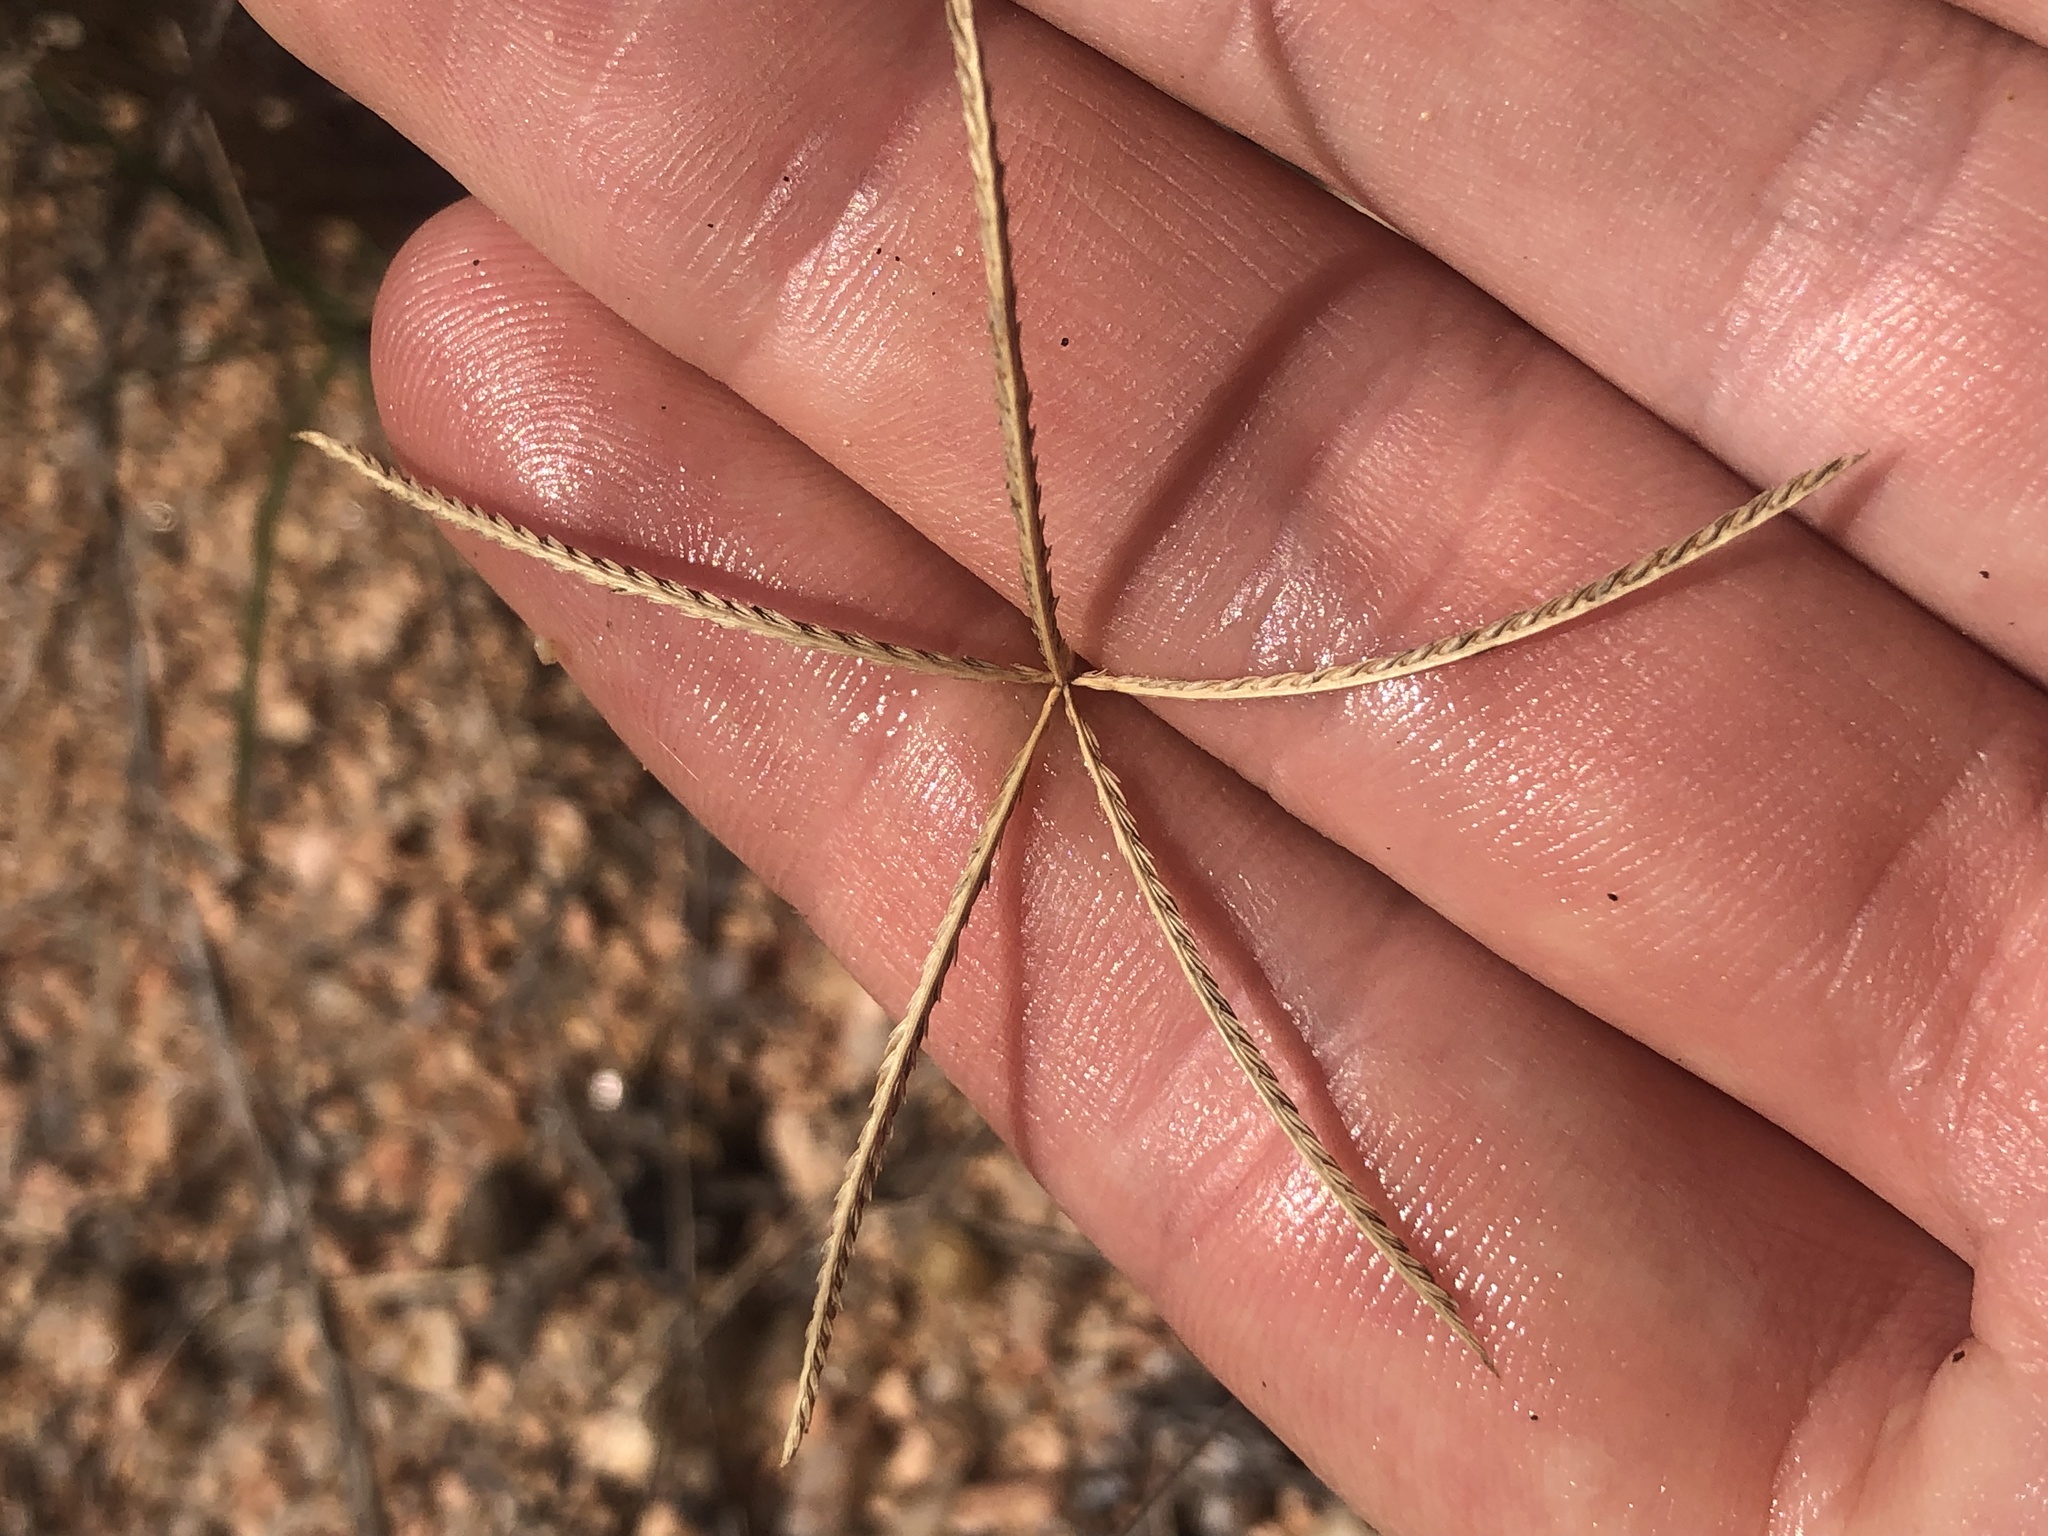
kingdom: Plantae
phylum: Tracheophyta
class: Liliopsida
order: Poales
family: Poaceae
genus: Cynodon
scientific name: Cynodon dactylon
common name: Bermuda grass
